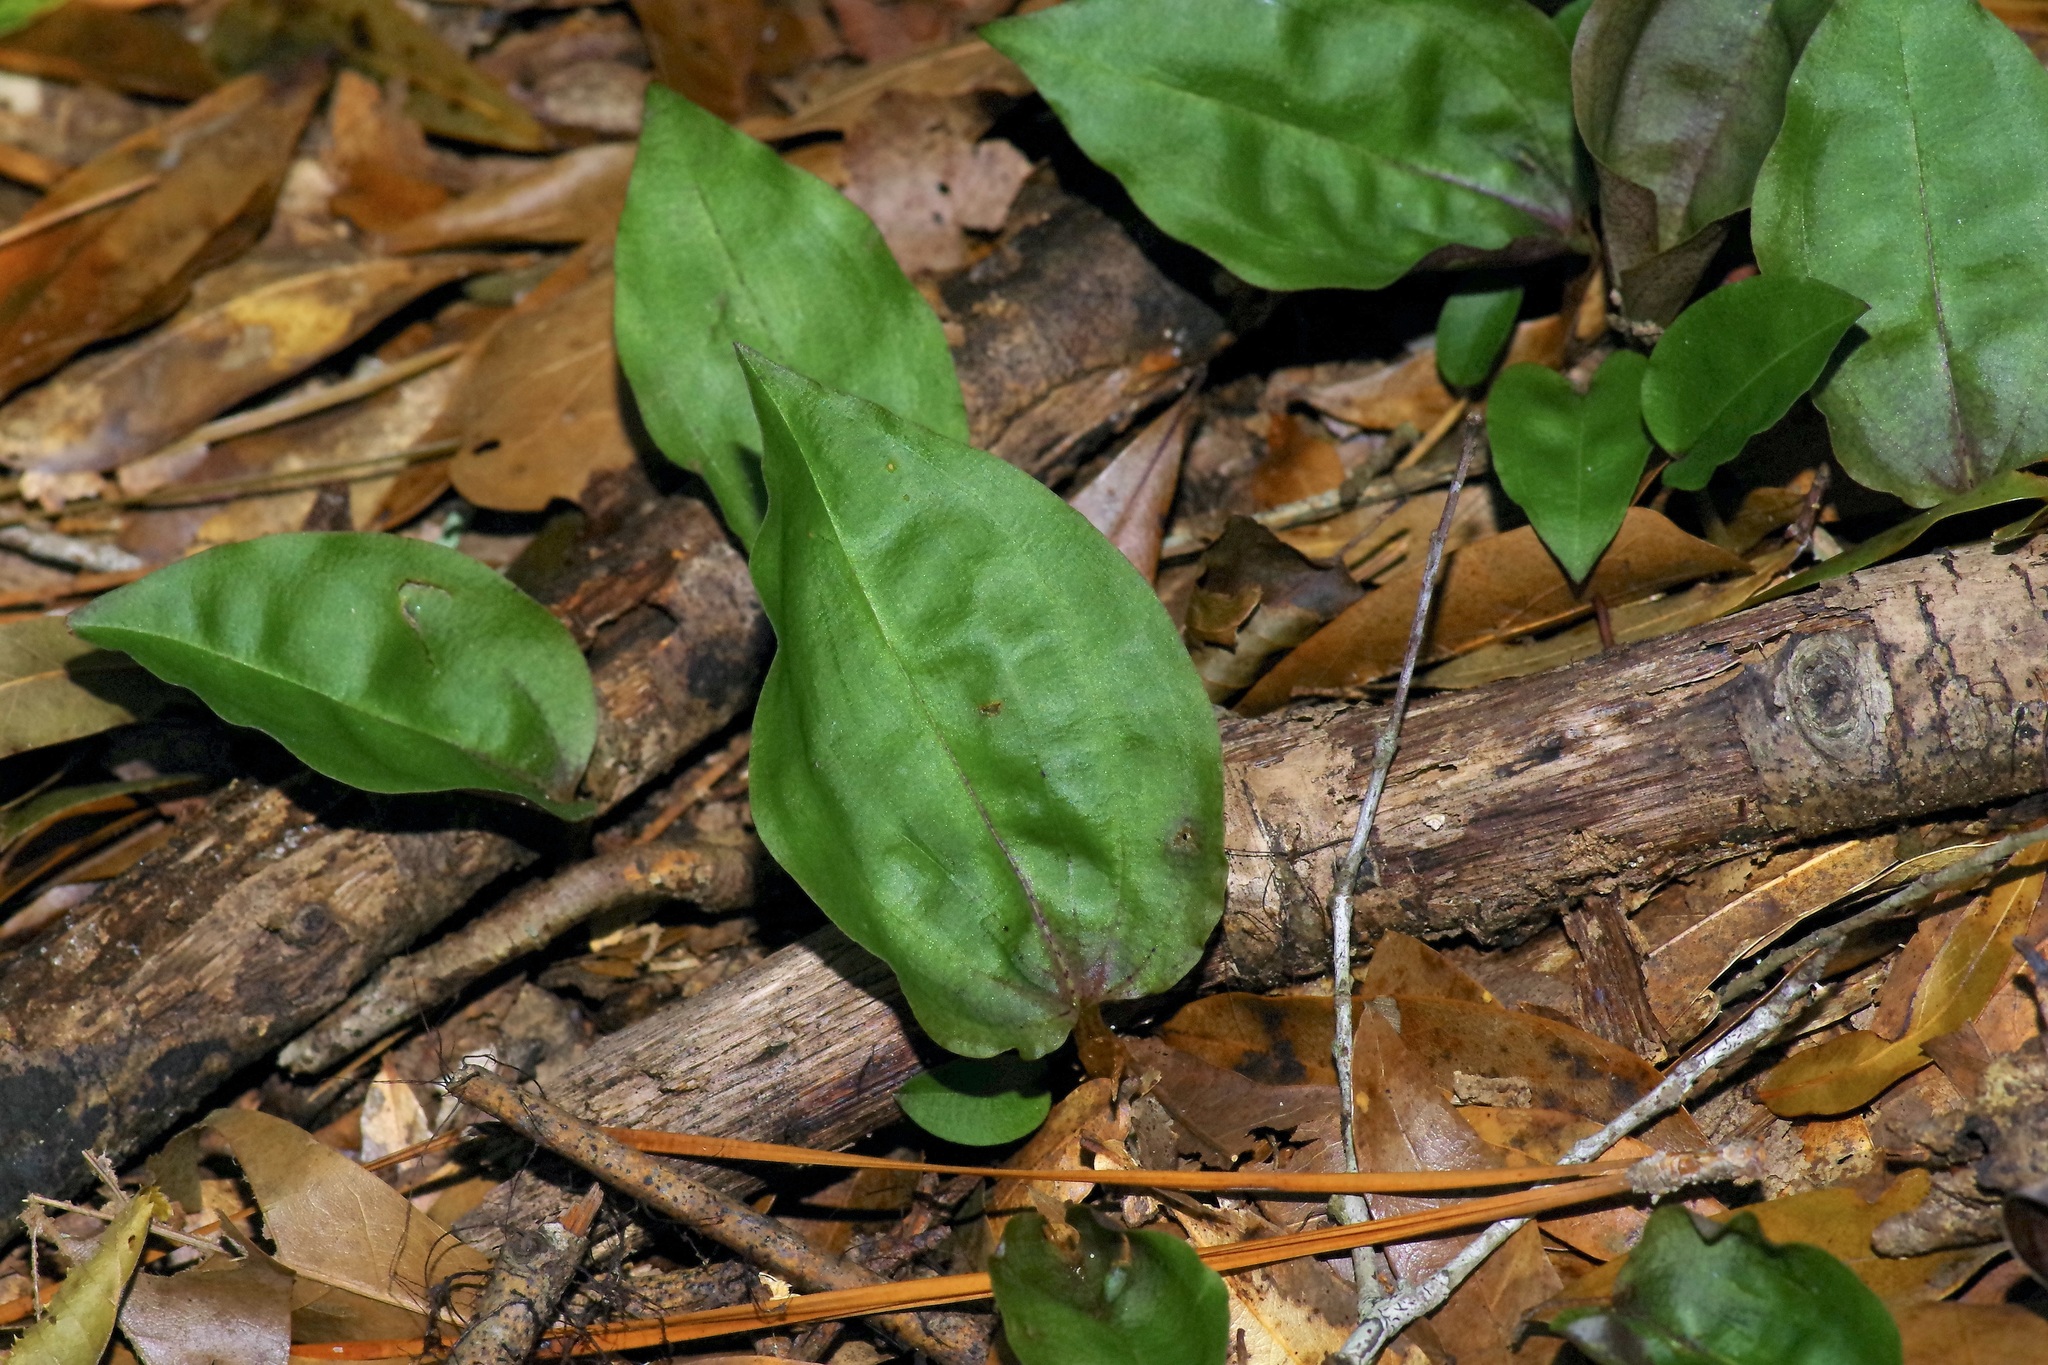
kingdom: Plantae
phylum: Tracheophyta
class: Liliopsida
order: Asparagales
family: Orchidaceae
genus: Tipularia
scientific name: Tipularia discolor
